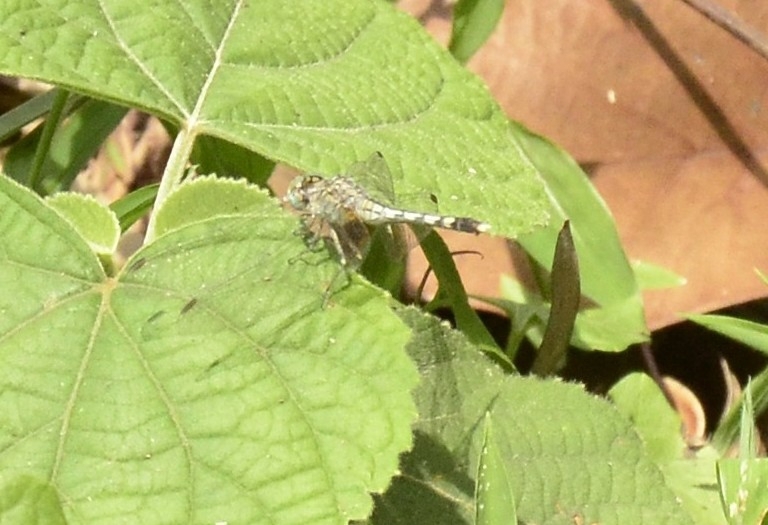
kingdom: Animalia
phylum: Arthropoda
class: Insecta
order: Odonata
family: Libellulidae
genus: Diplacodes
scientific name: Diplacodes trivialis
